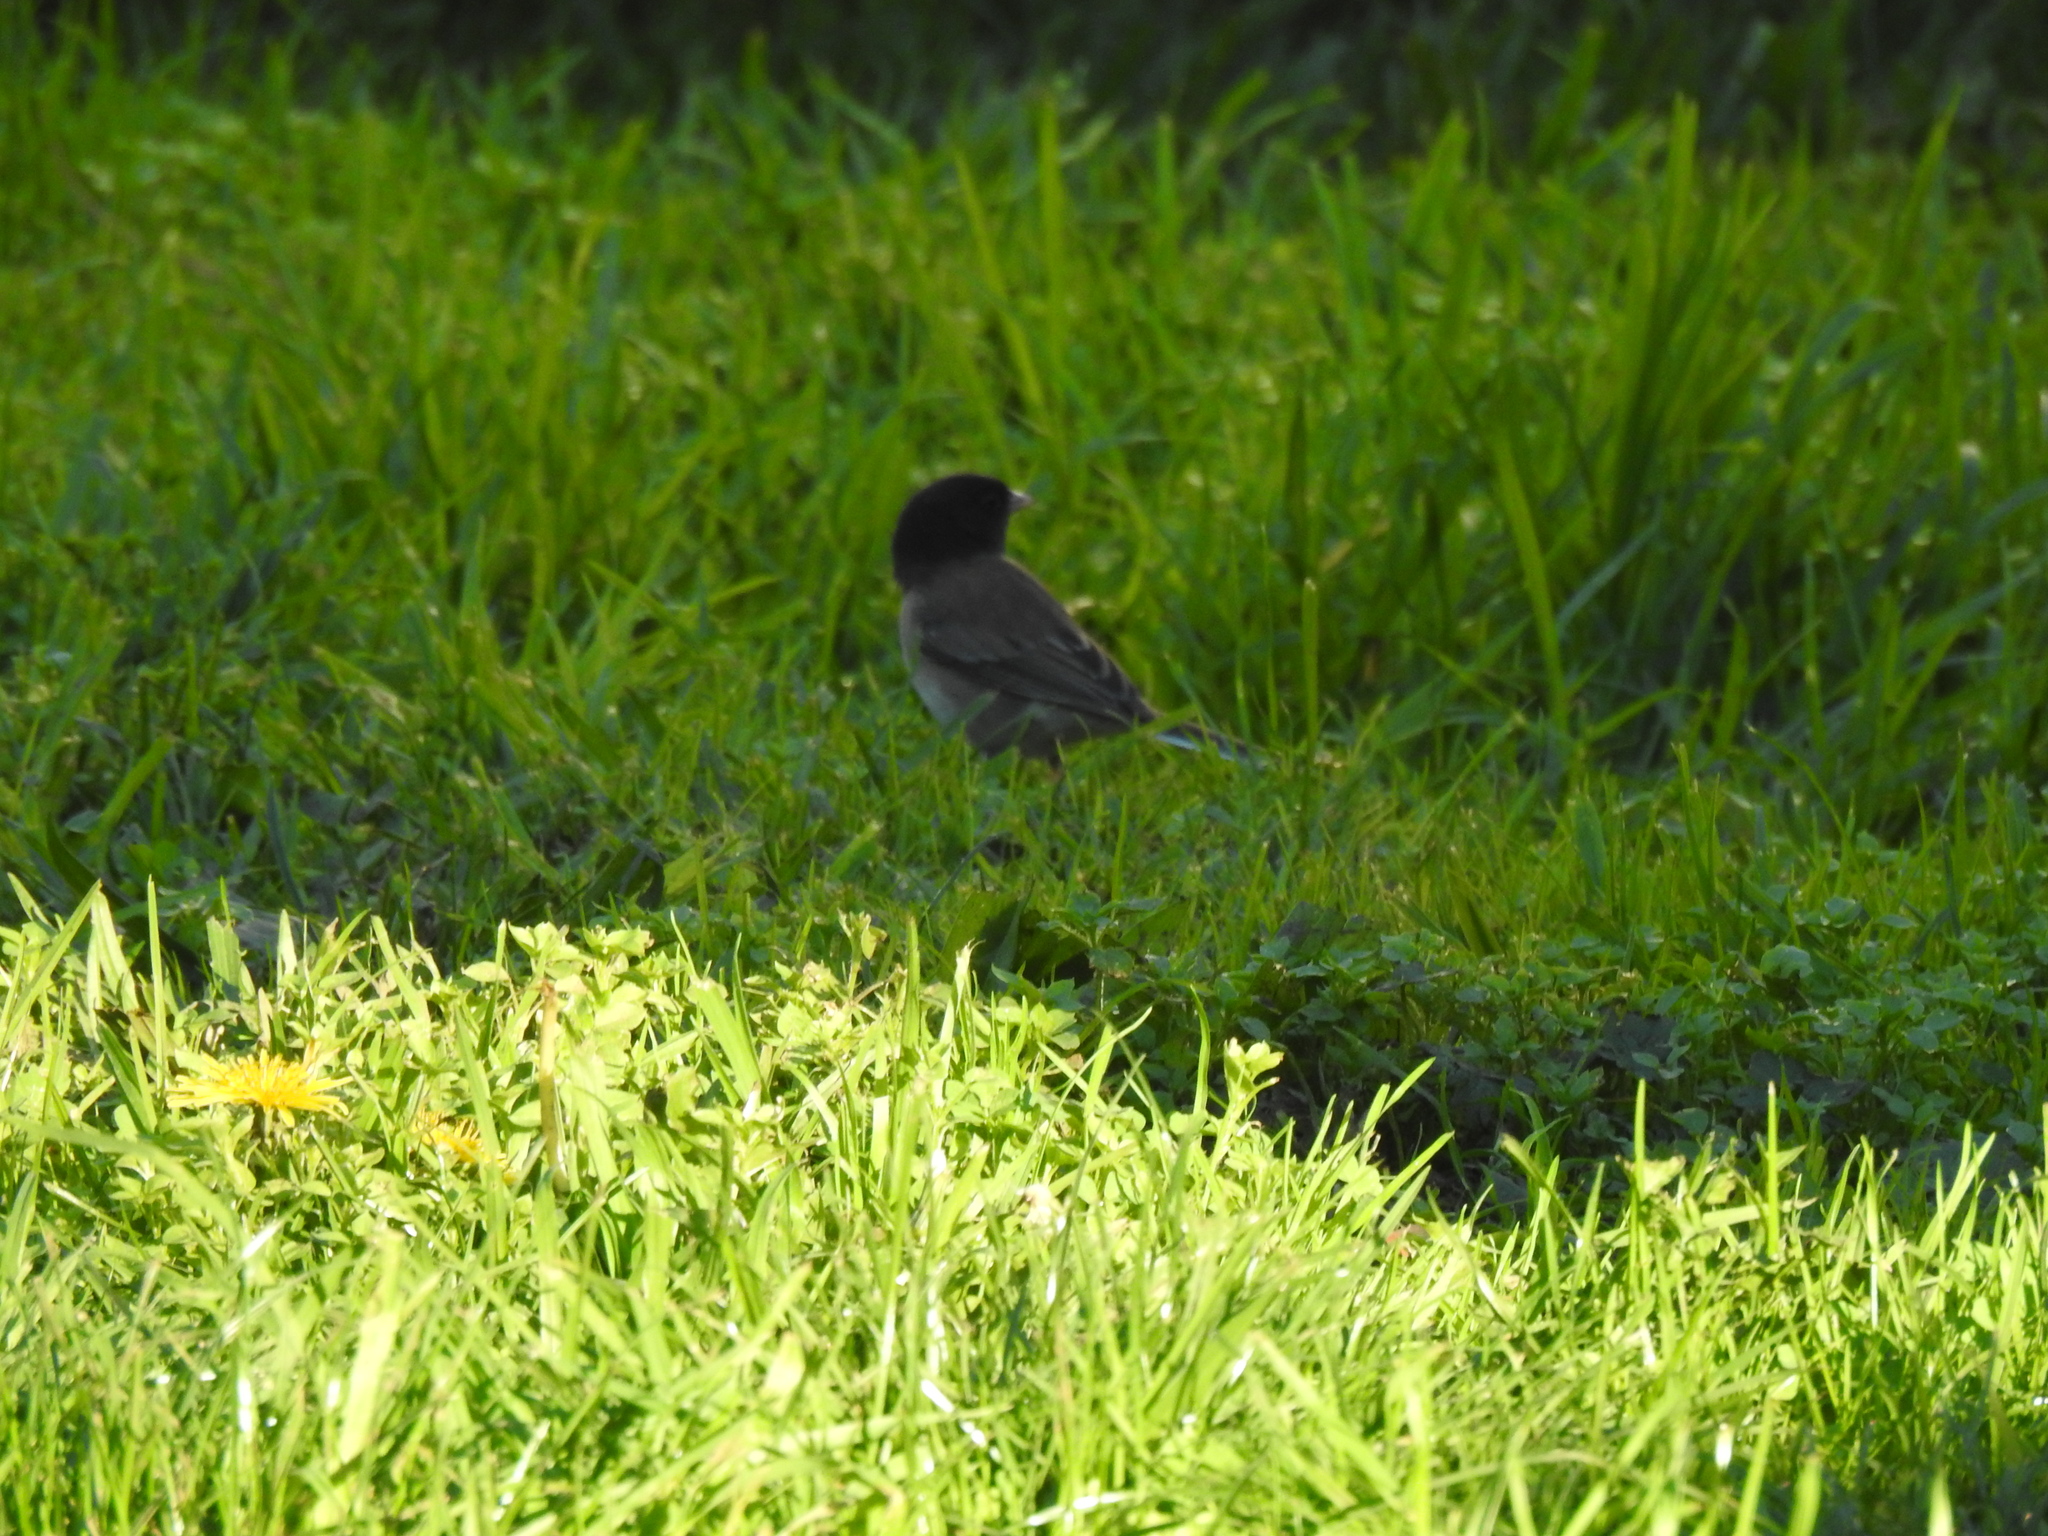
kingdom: Animalia
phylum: Chordata
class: Aves
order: Passeriformes
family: Passerellidae
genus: Junco
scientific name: Junco hyemalis
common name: Dark-eyed junco
